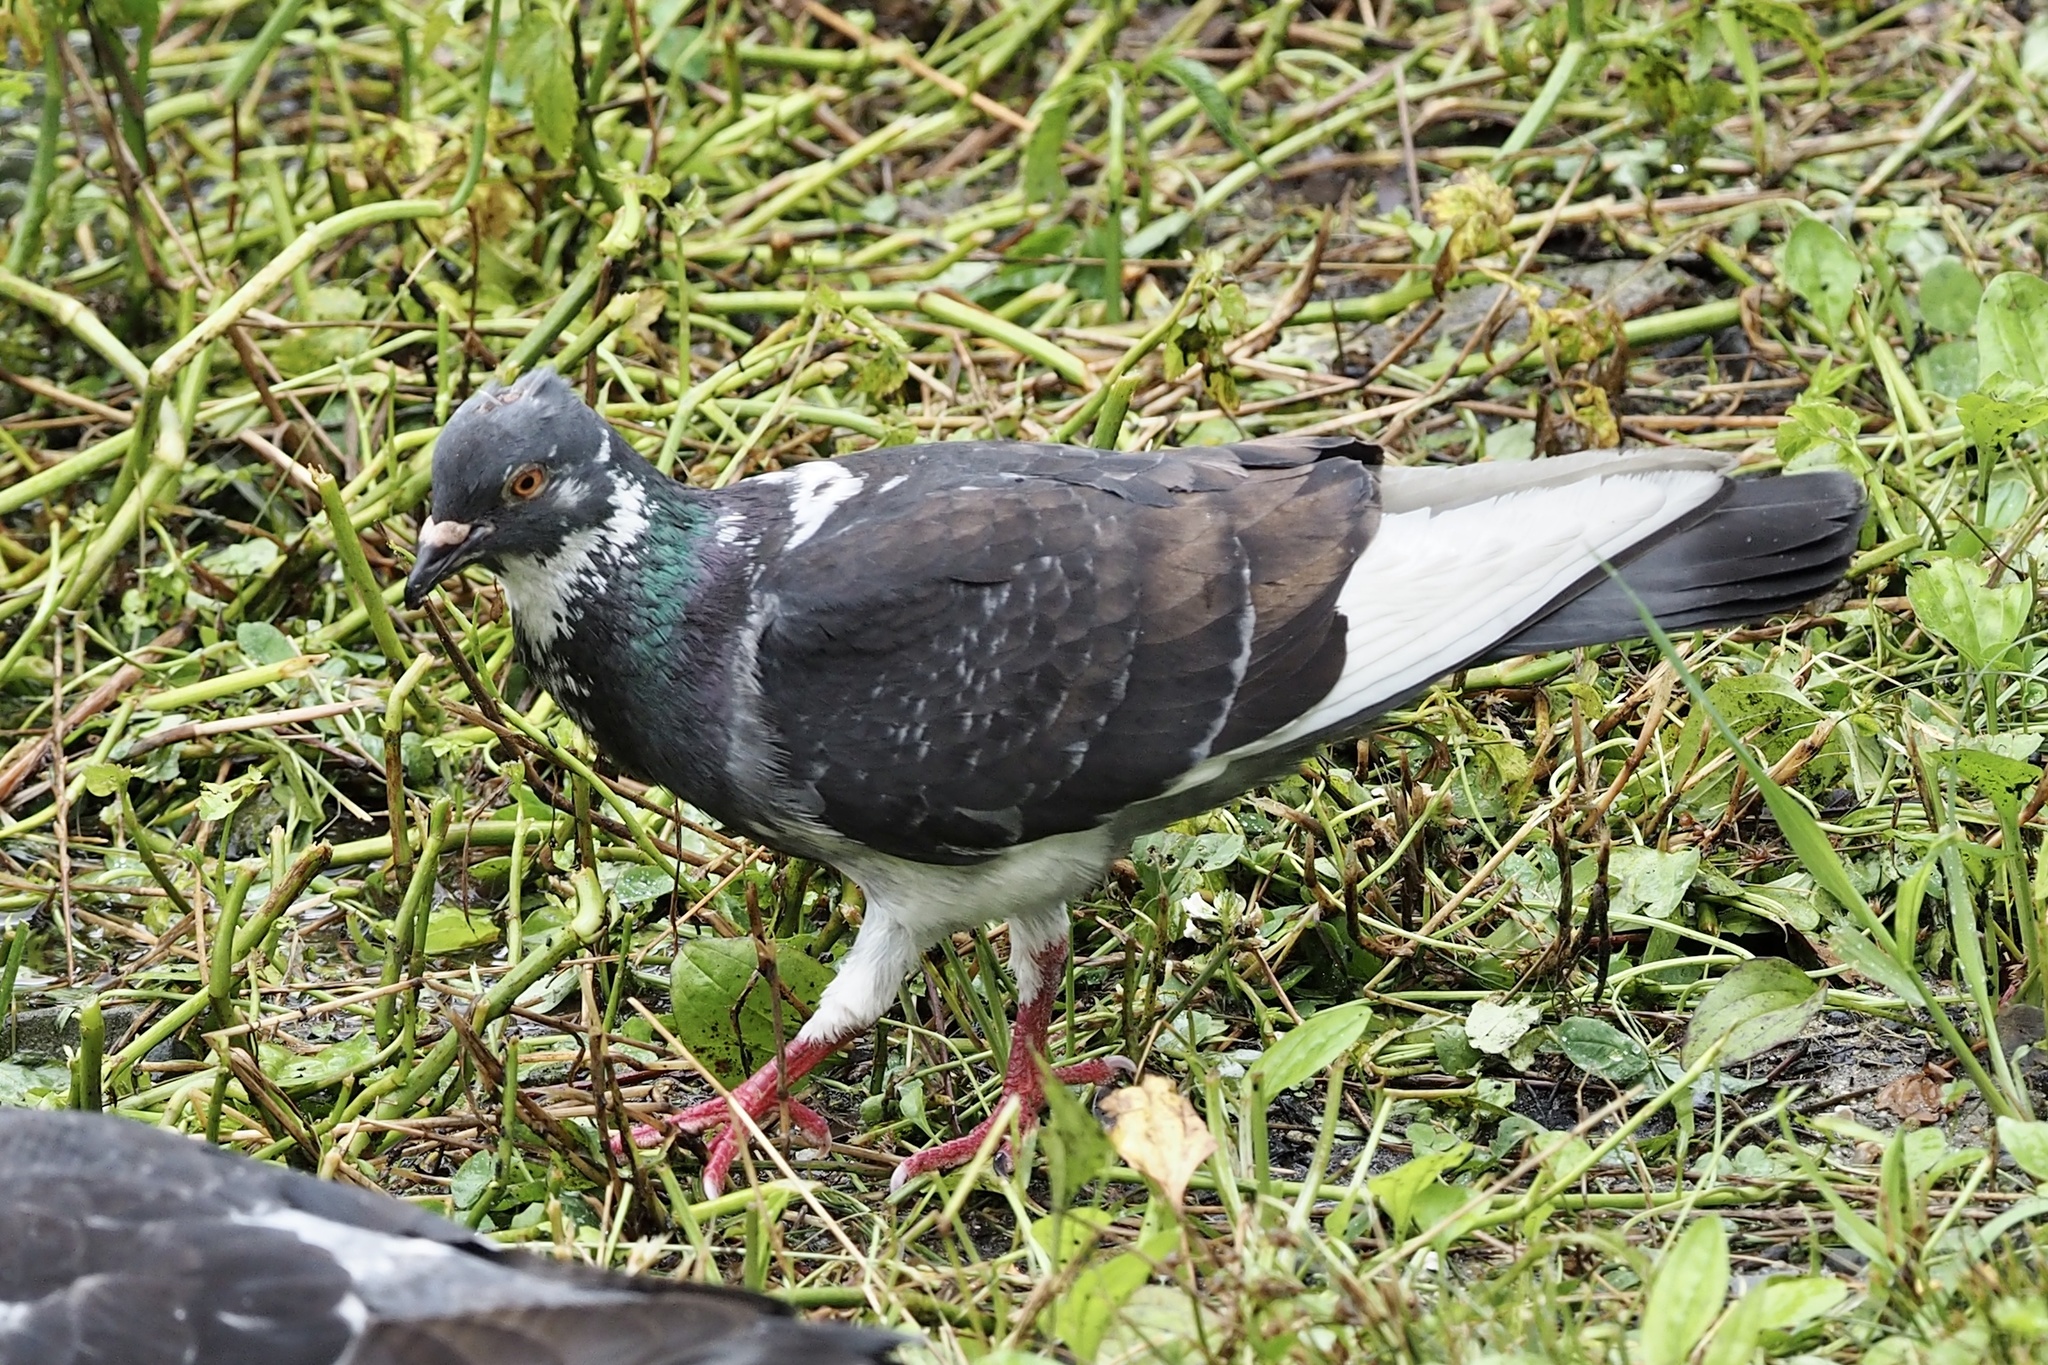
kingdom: Animalia
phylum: Chordata
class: Aves
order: Columbiformes
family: Columbidae
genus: Columba
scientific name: Columba livia
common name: Rock pigeon
